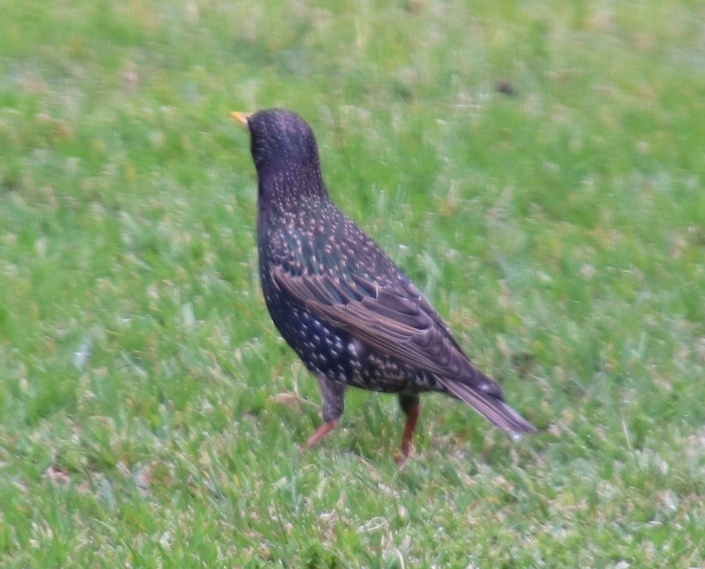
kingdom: Animalia
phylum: Chordata
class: Aves
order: Passeriformes
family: Sturnidae
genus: Sturnus
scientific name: Sturnus vulgaris
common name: Common starling
